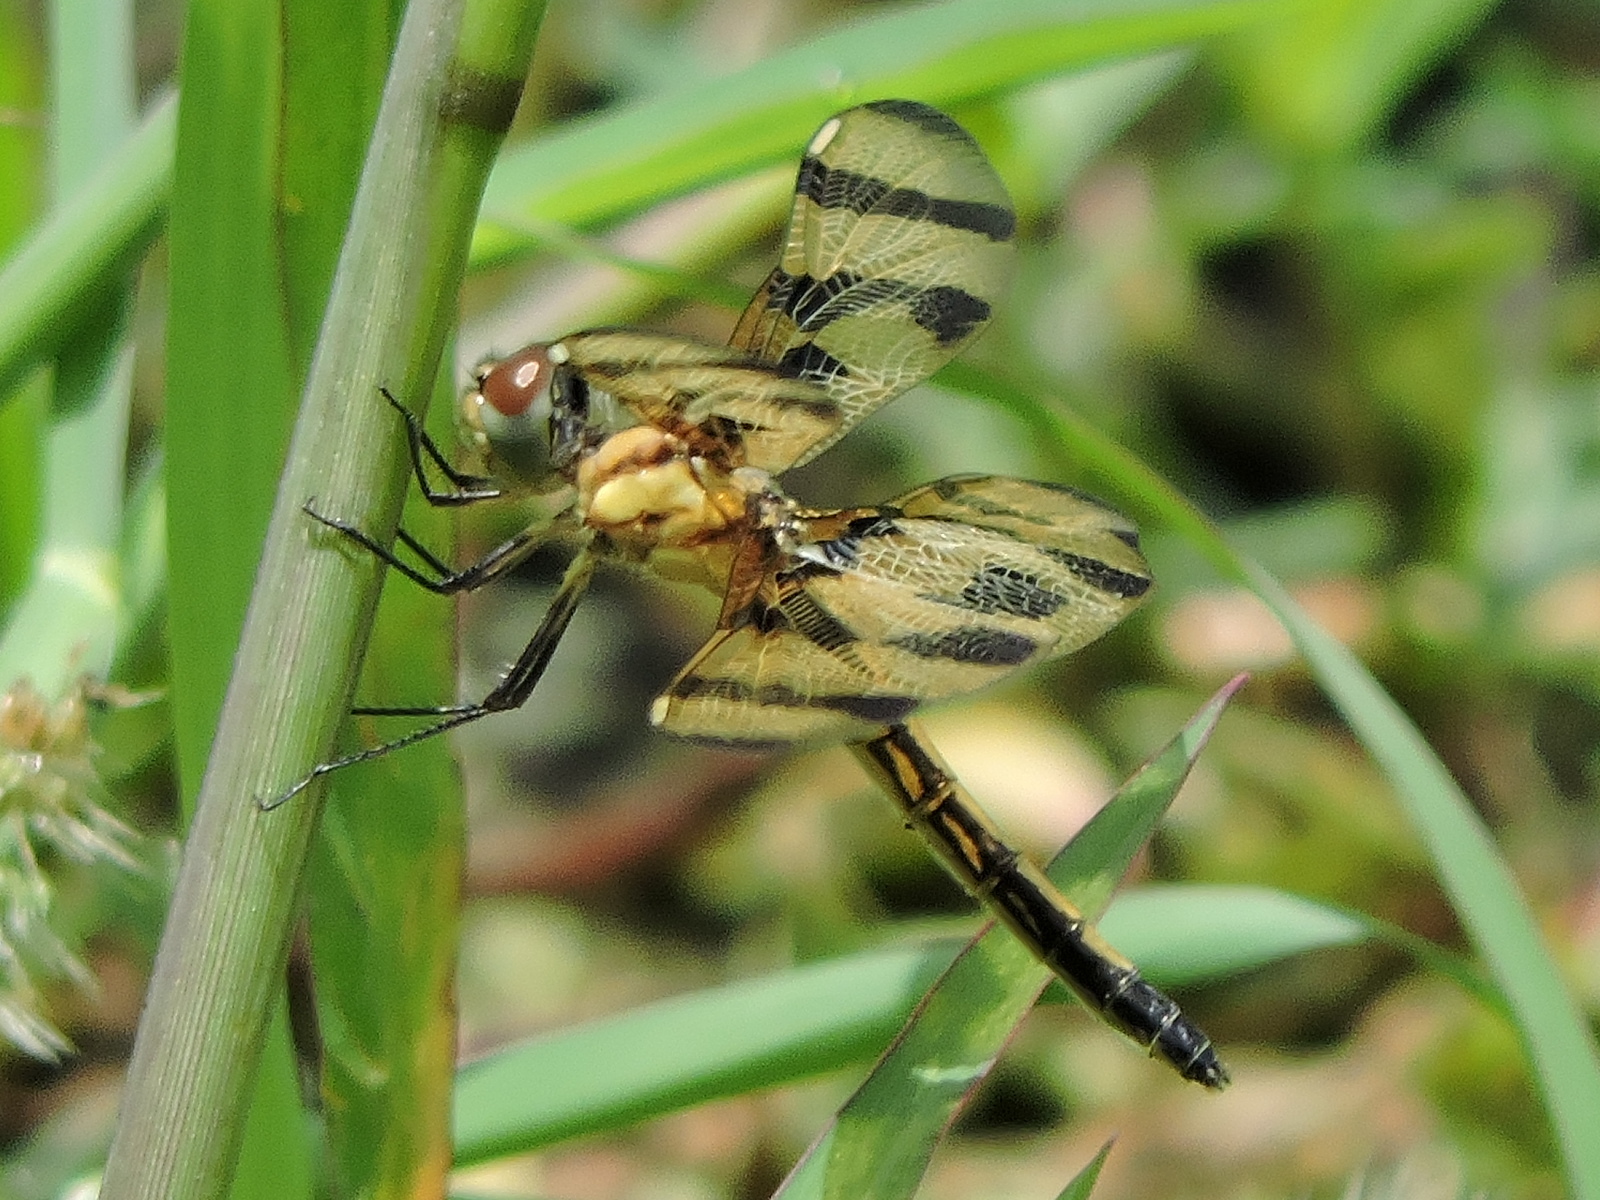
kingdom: Animalia
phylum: Arthropoda
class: Insecta
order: Odonata
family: Libellulidae
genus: Celithemis
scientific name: Celithemis eponina
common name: Halloween pennant
